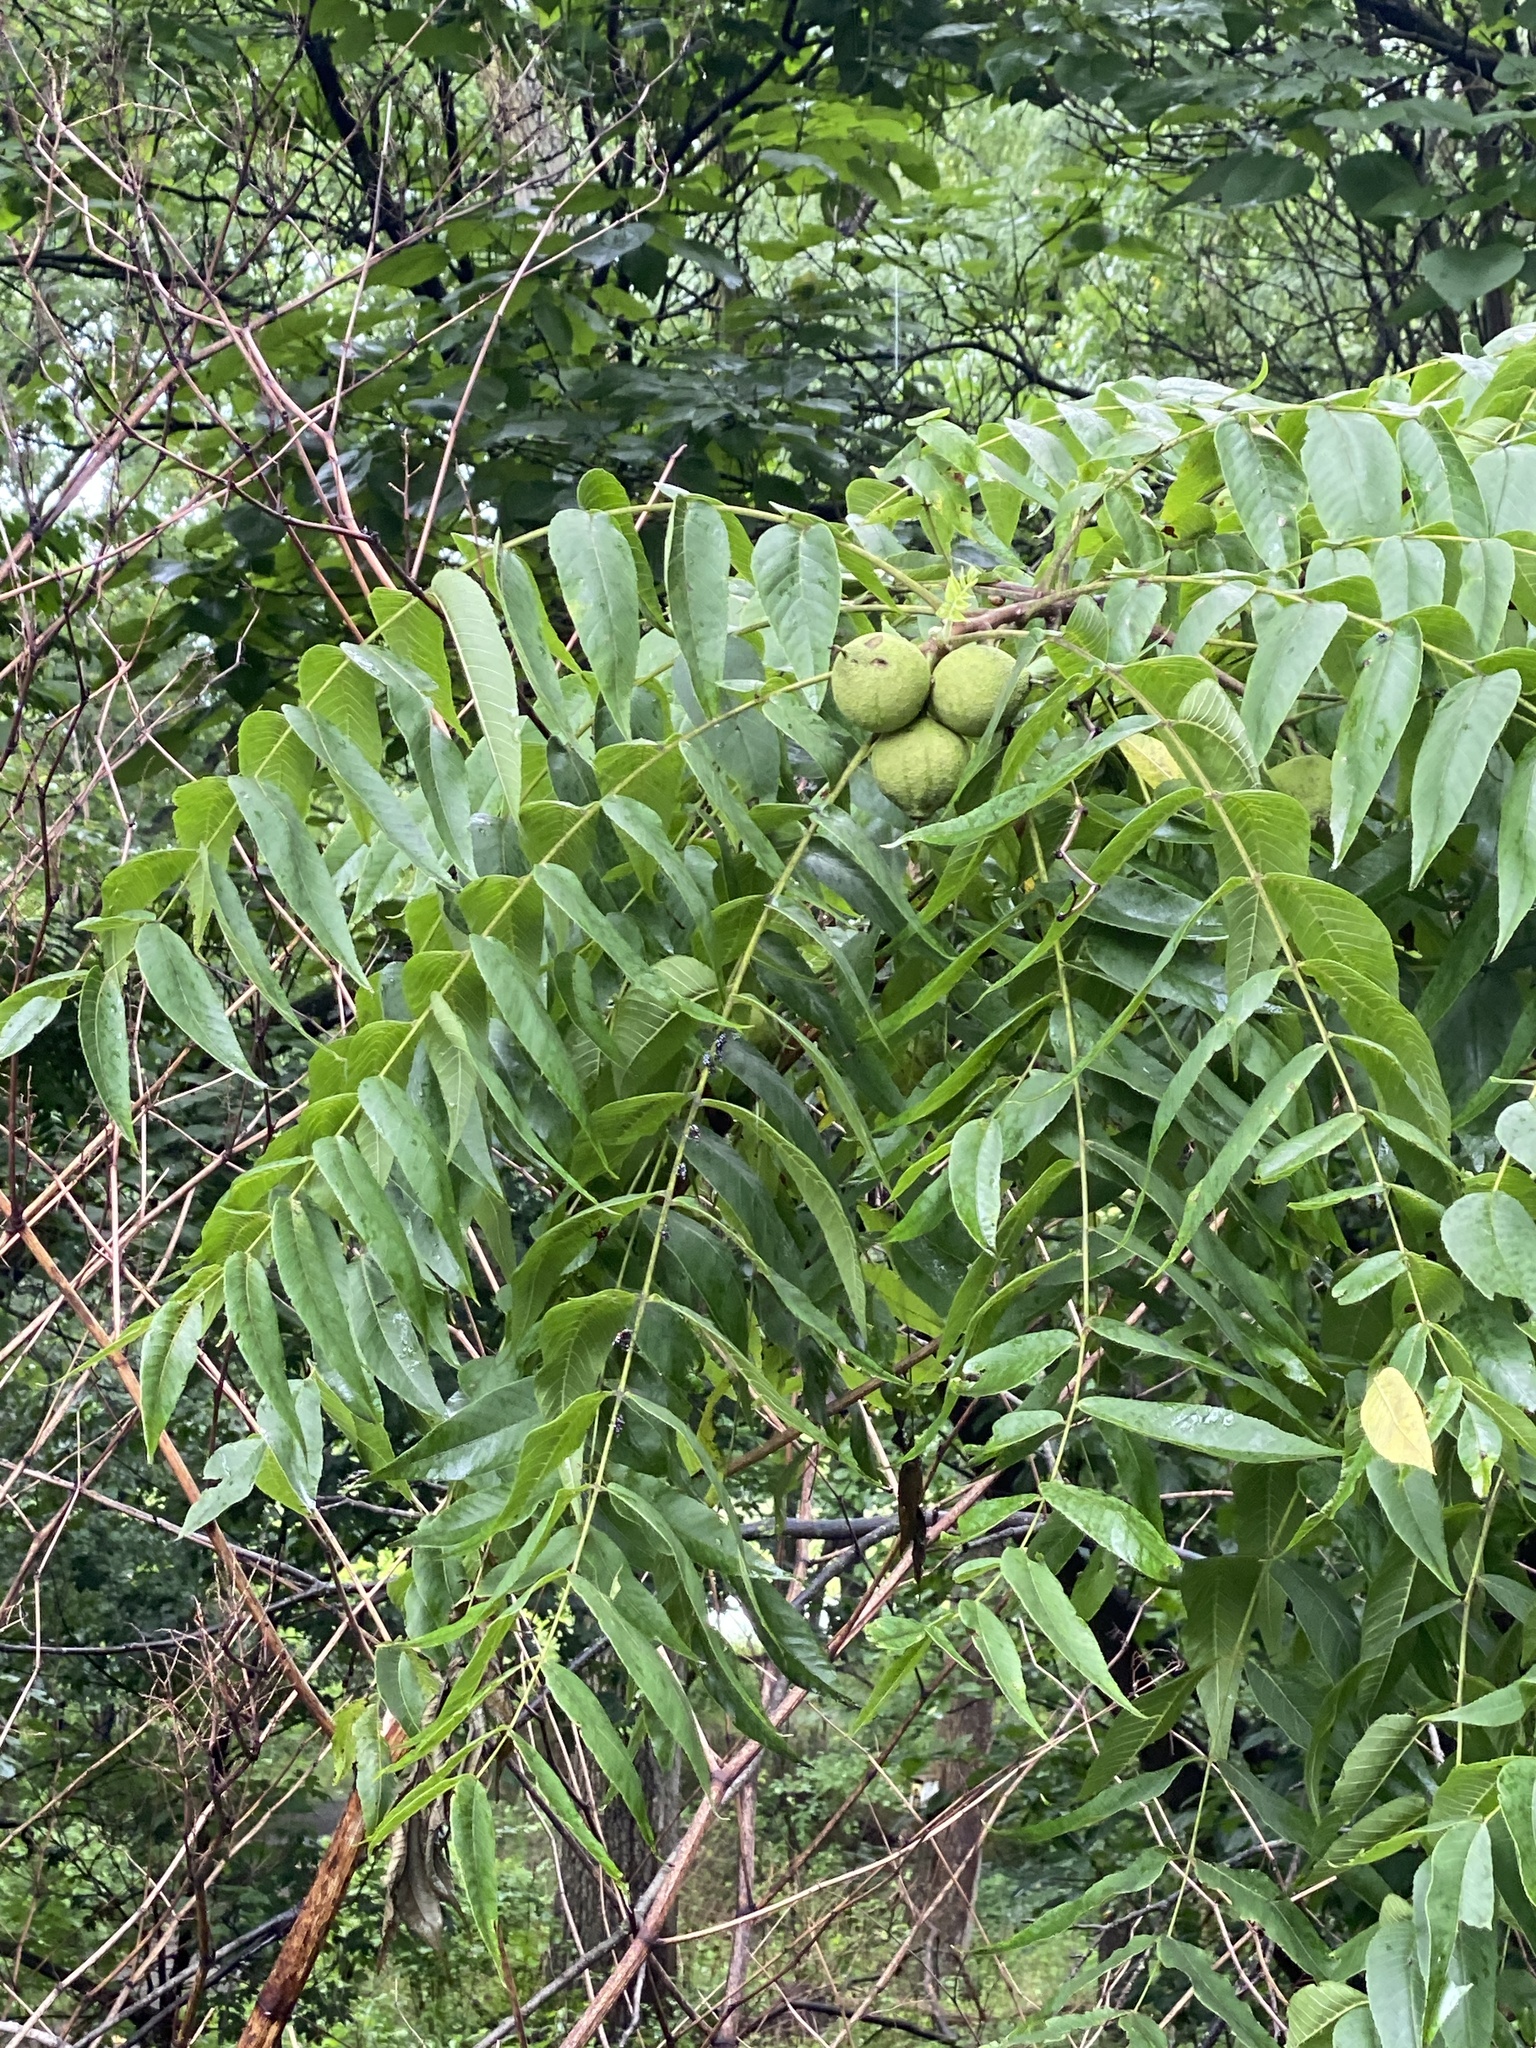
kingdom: Plantae
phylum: Tracheophyta
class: Magnoliopsida
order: Fagales
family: Juglandaceae
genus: Juglans
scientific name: Juglans nigra
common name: Black walnut
